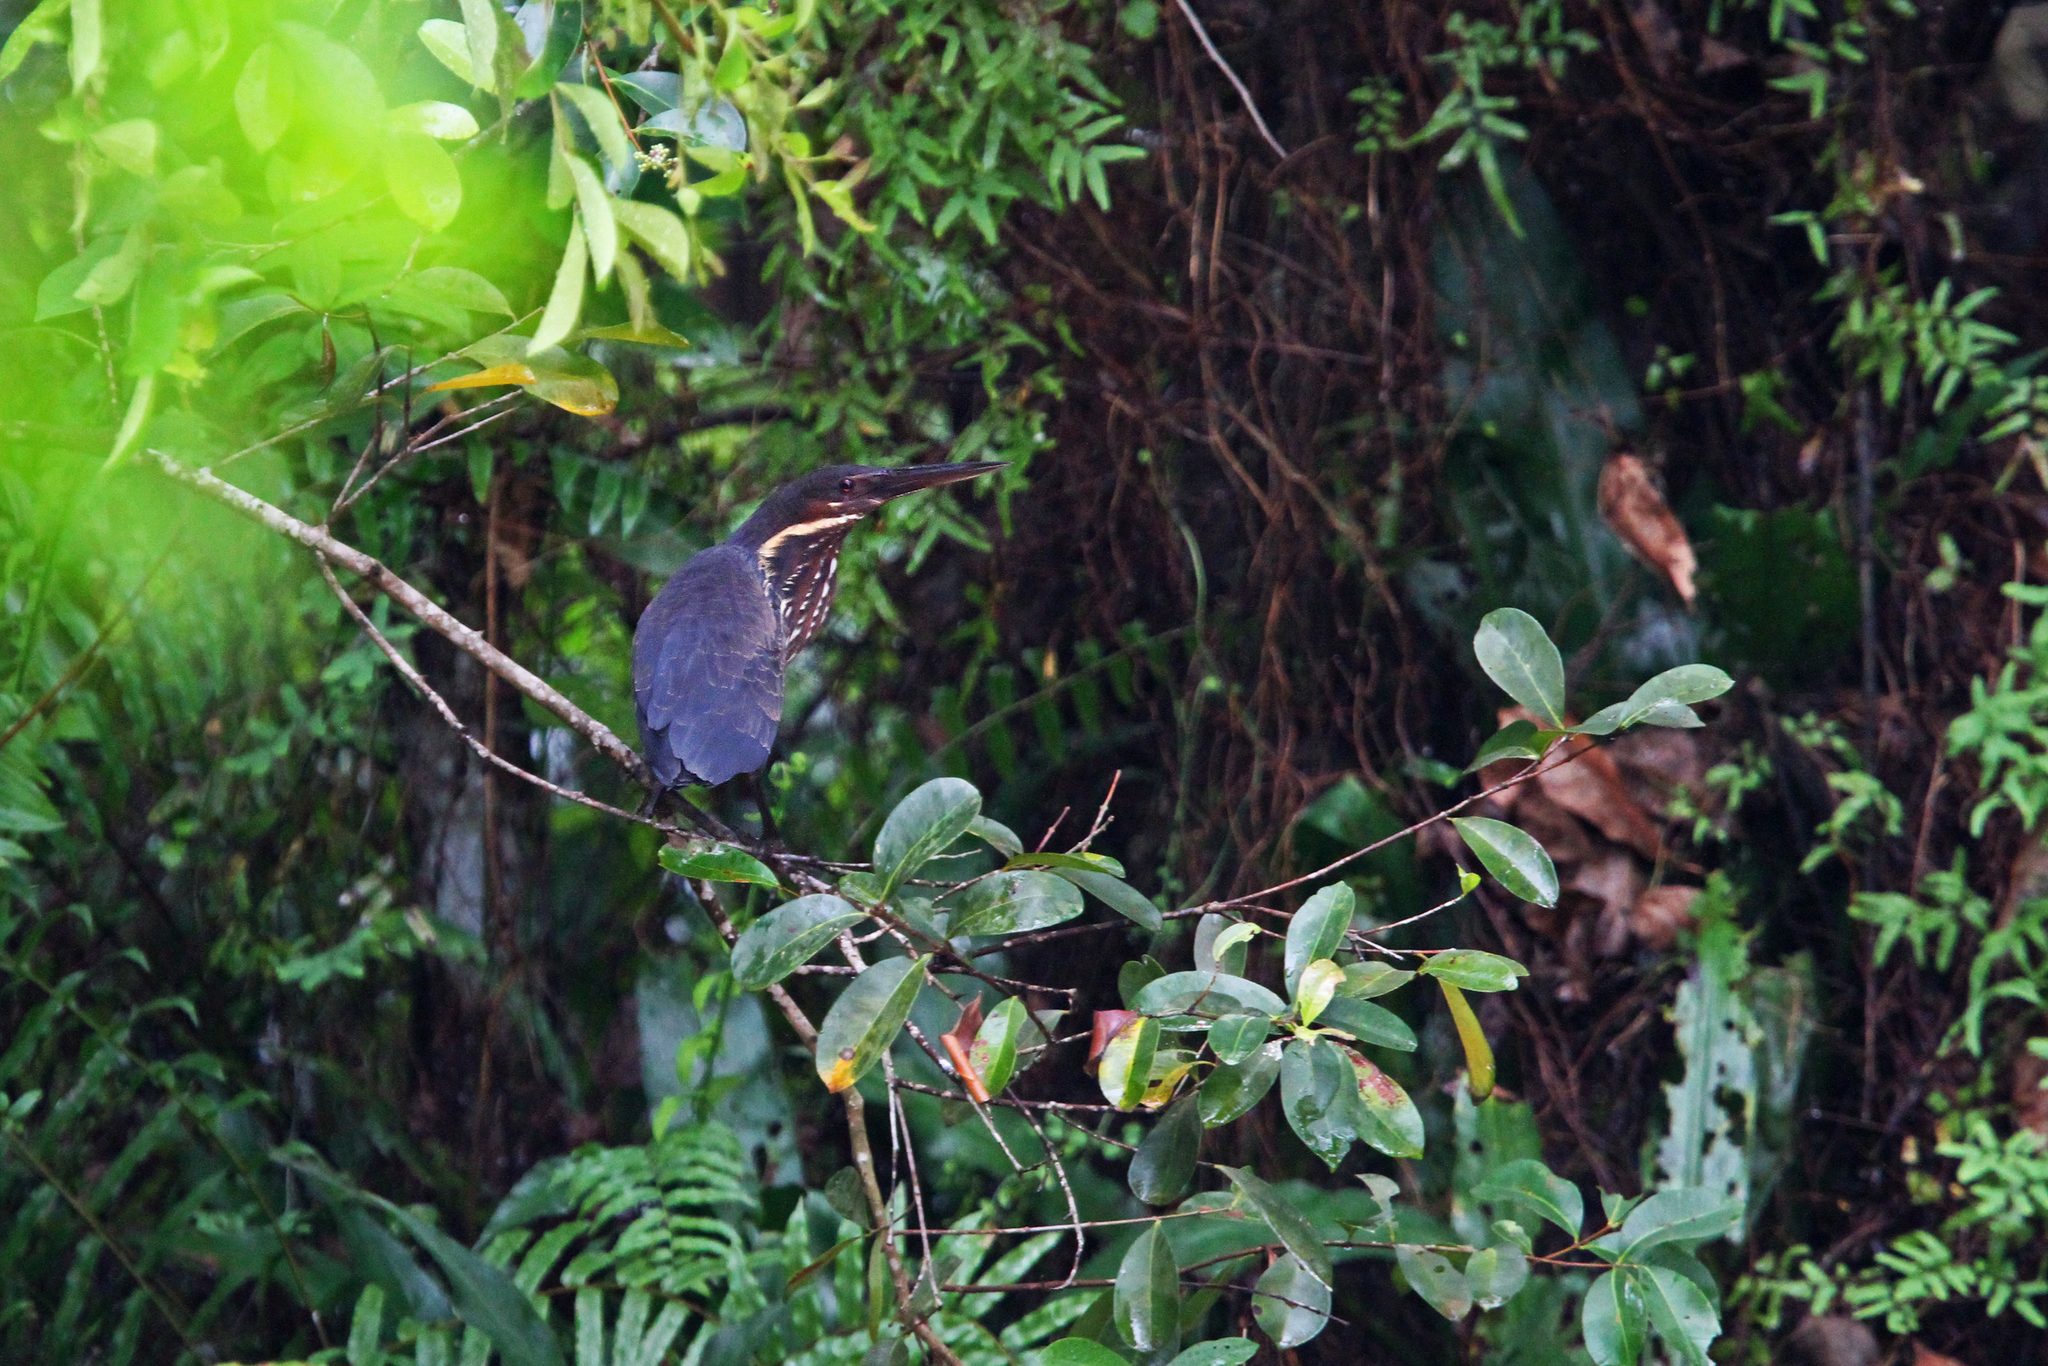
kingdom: Animalia
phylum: Chordata
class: Aves
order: Pelecaniformes
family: Ardeidae
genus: Dupetor
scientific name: Dupetor flavicollis
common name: Black bittern
